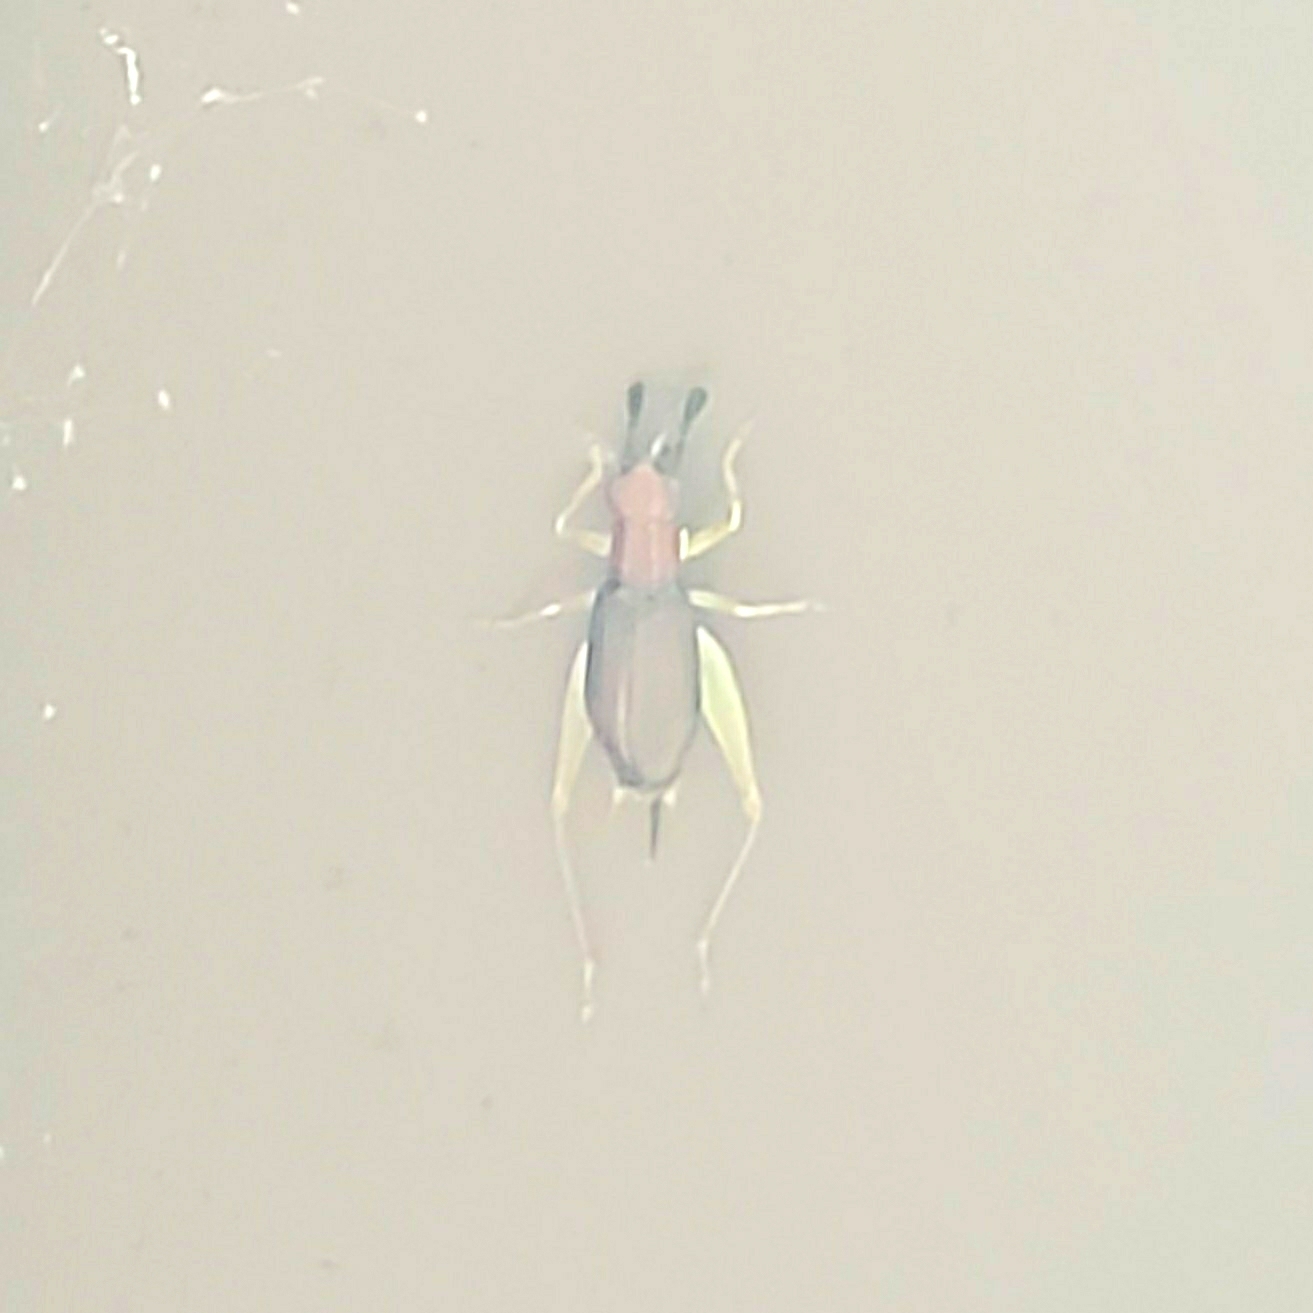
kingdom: Animalia
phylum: Arthropoda
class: Insecta
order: Orthoptera
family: Trigonidiidae
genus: Phyllopalpus
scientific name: Phyllopalpus pulchellus
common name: Handsome trig
